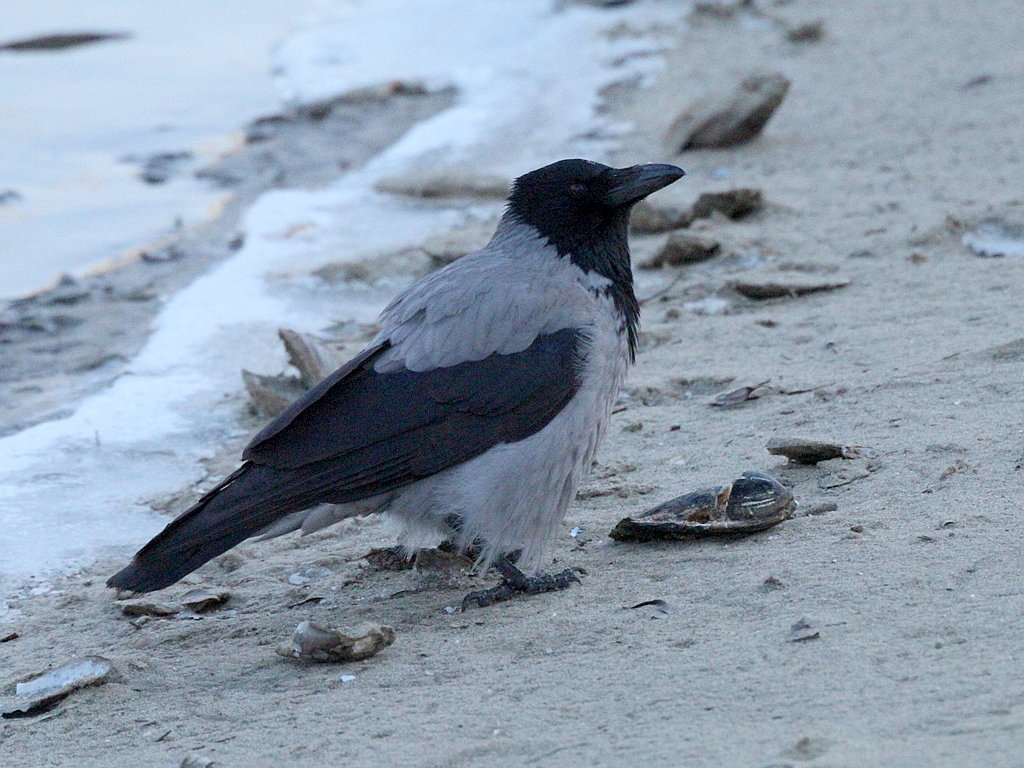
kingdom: Animalia
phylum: Chordata
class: Aves
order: Passeriformes
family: Corvidae
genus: Corvus
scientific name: Corvus cornix
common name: Hooded crow
